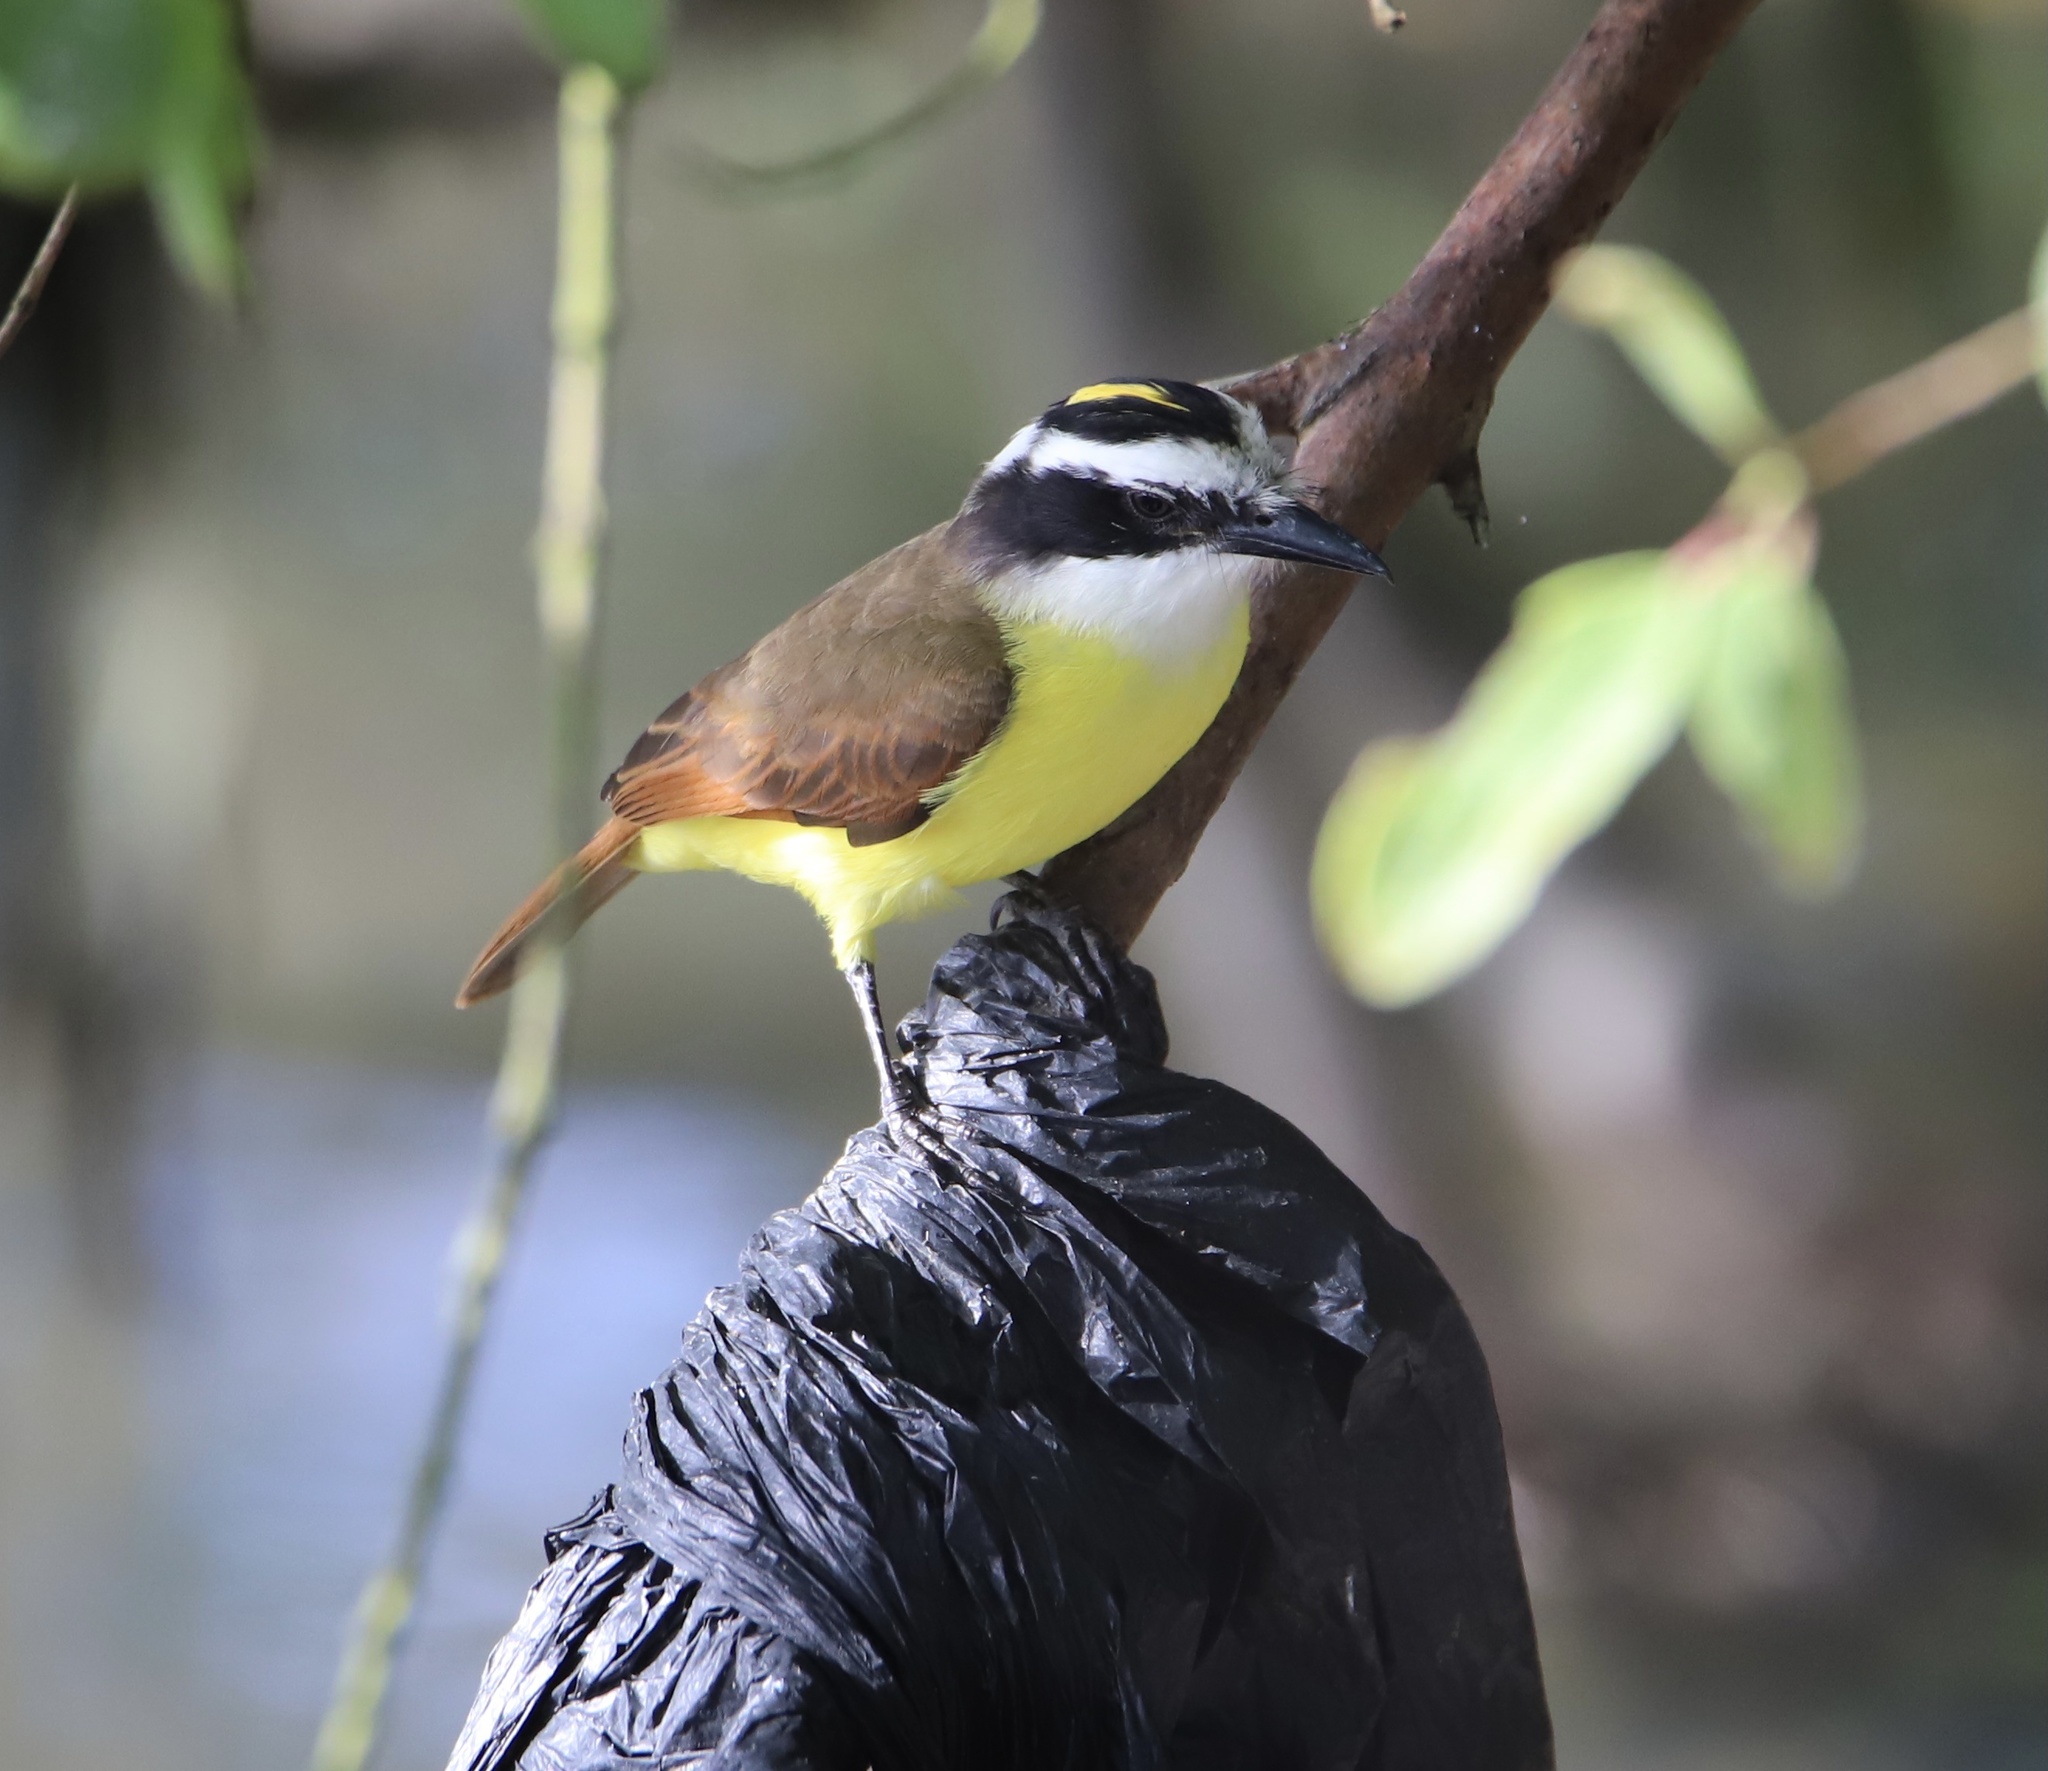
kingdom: Animalia
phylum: Chordata
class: Aves
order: Passeriformes
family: Tyrannidae
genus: Pitangus
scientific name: Pitangus sulphuratus
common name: Great kiskadee
